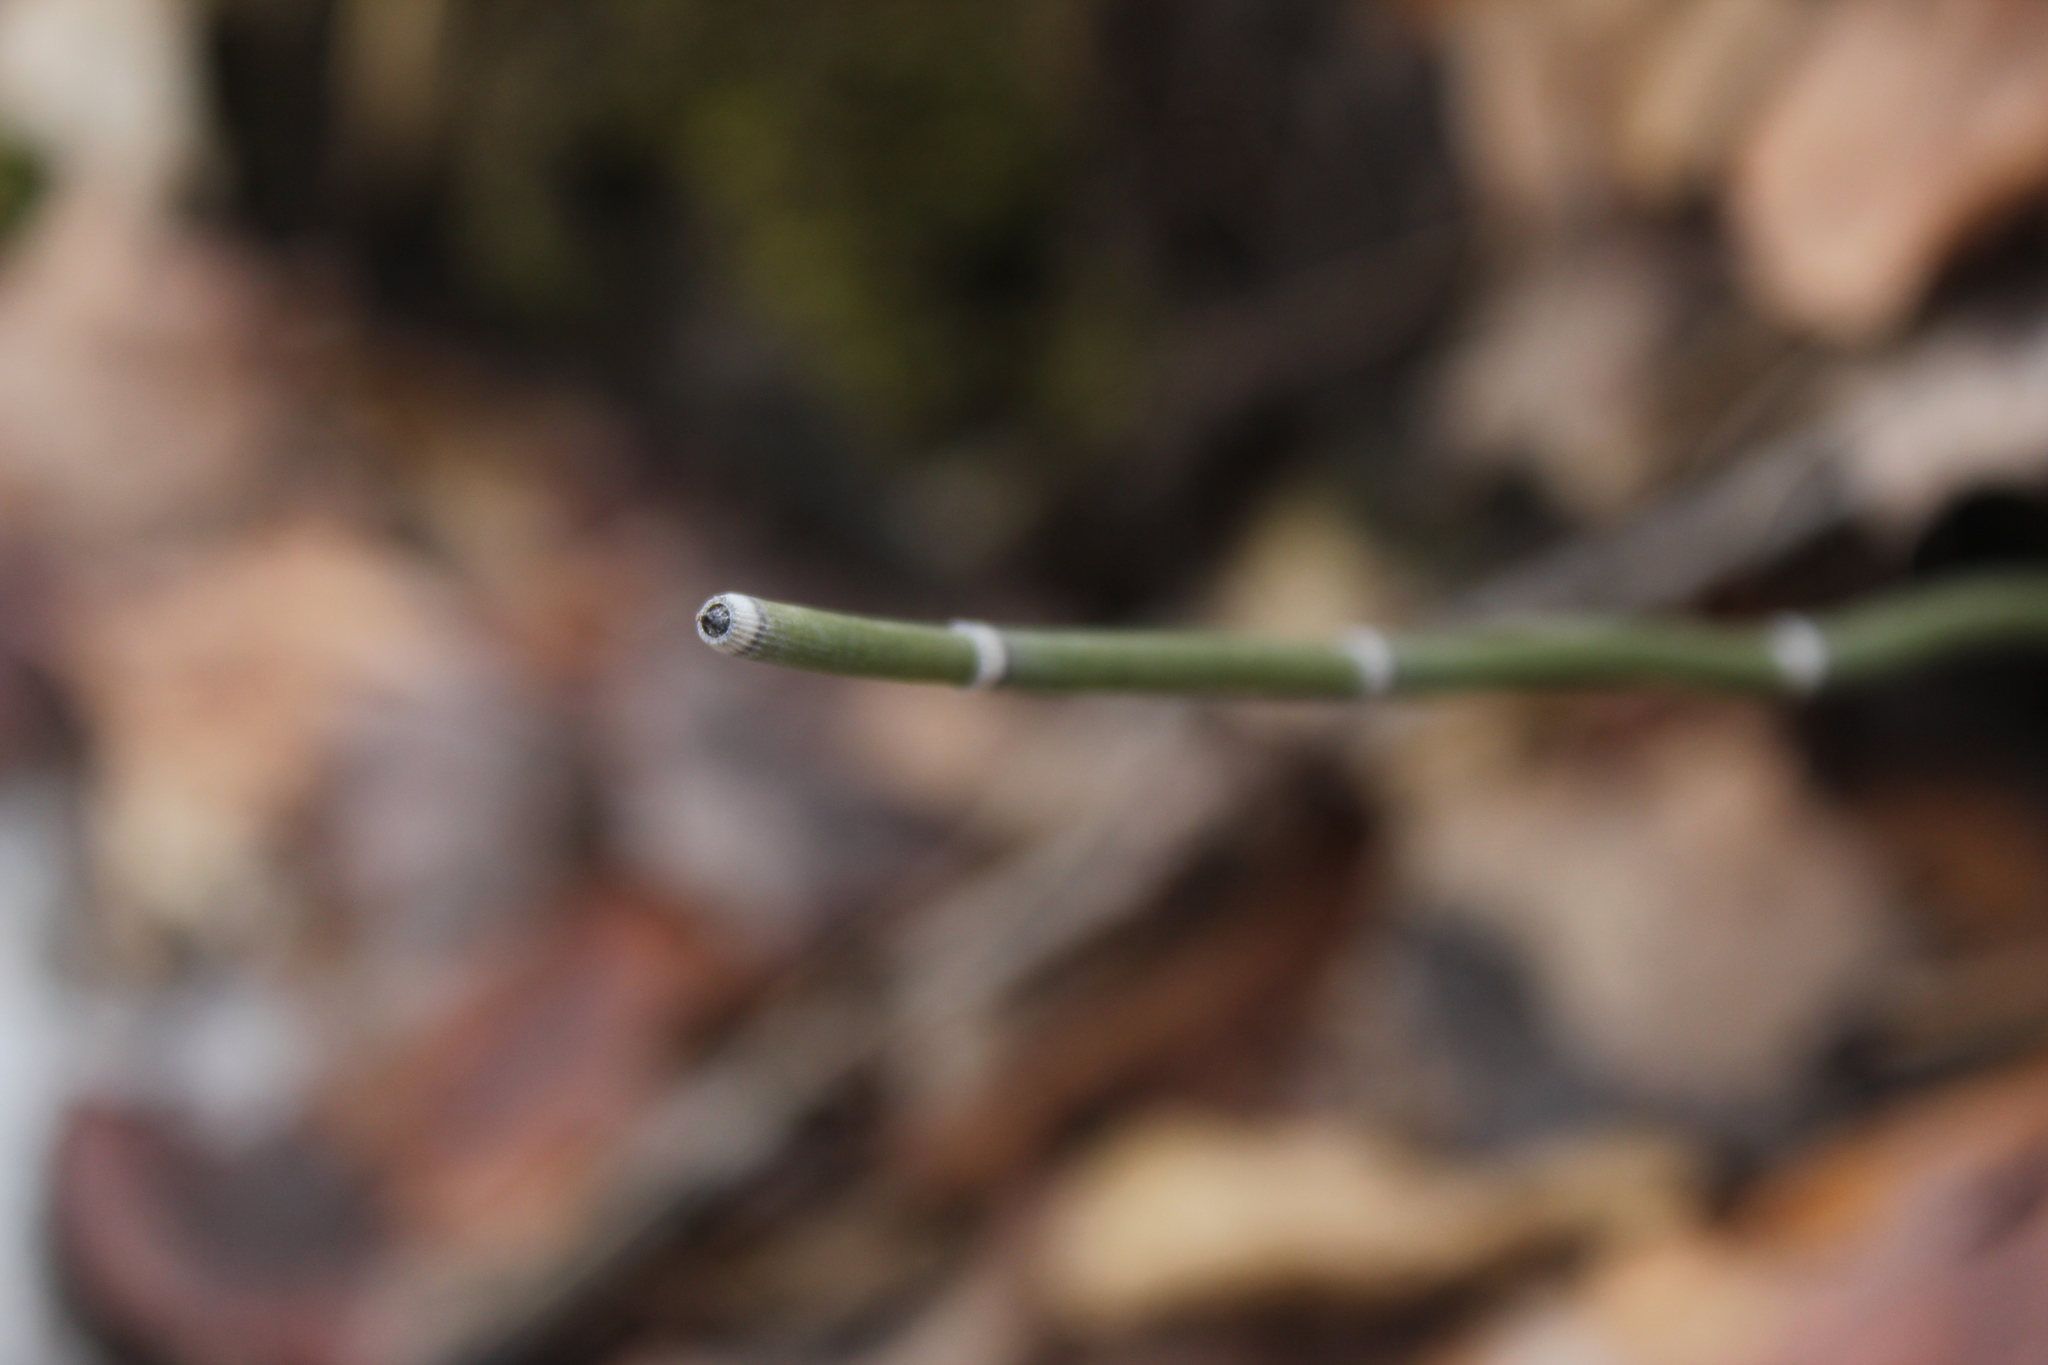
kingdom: Plantae
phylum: Tracheophyta
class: Polypodiopsida
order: Equisetales
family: Equisetaceae
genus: Equisetum
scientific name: Equisetum hyemale
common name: Rough horsetail
